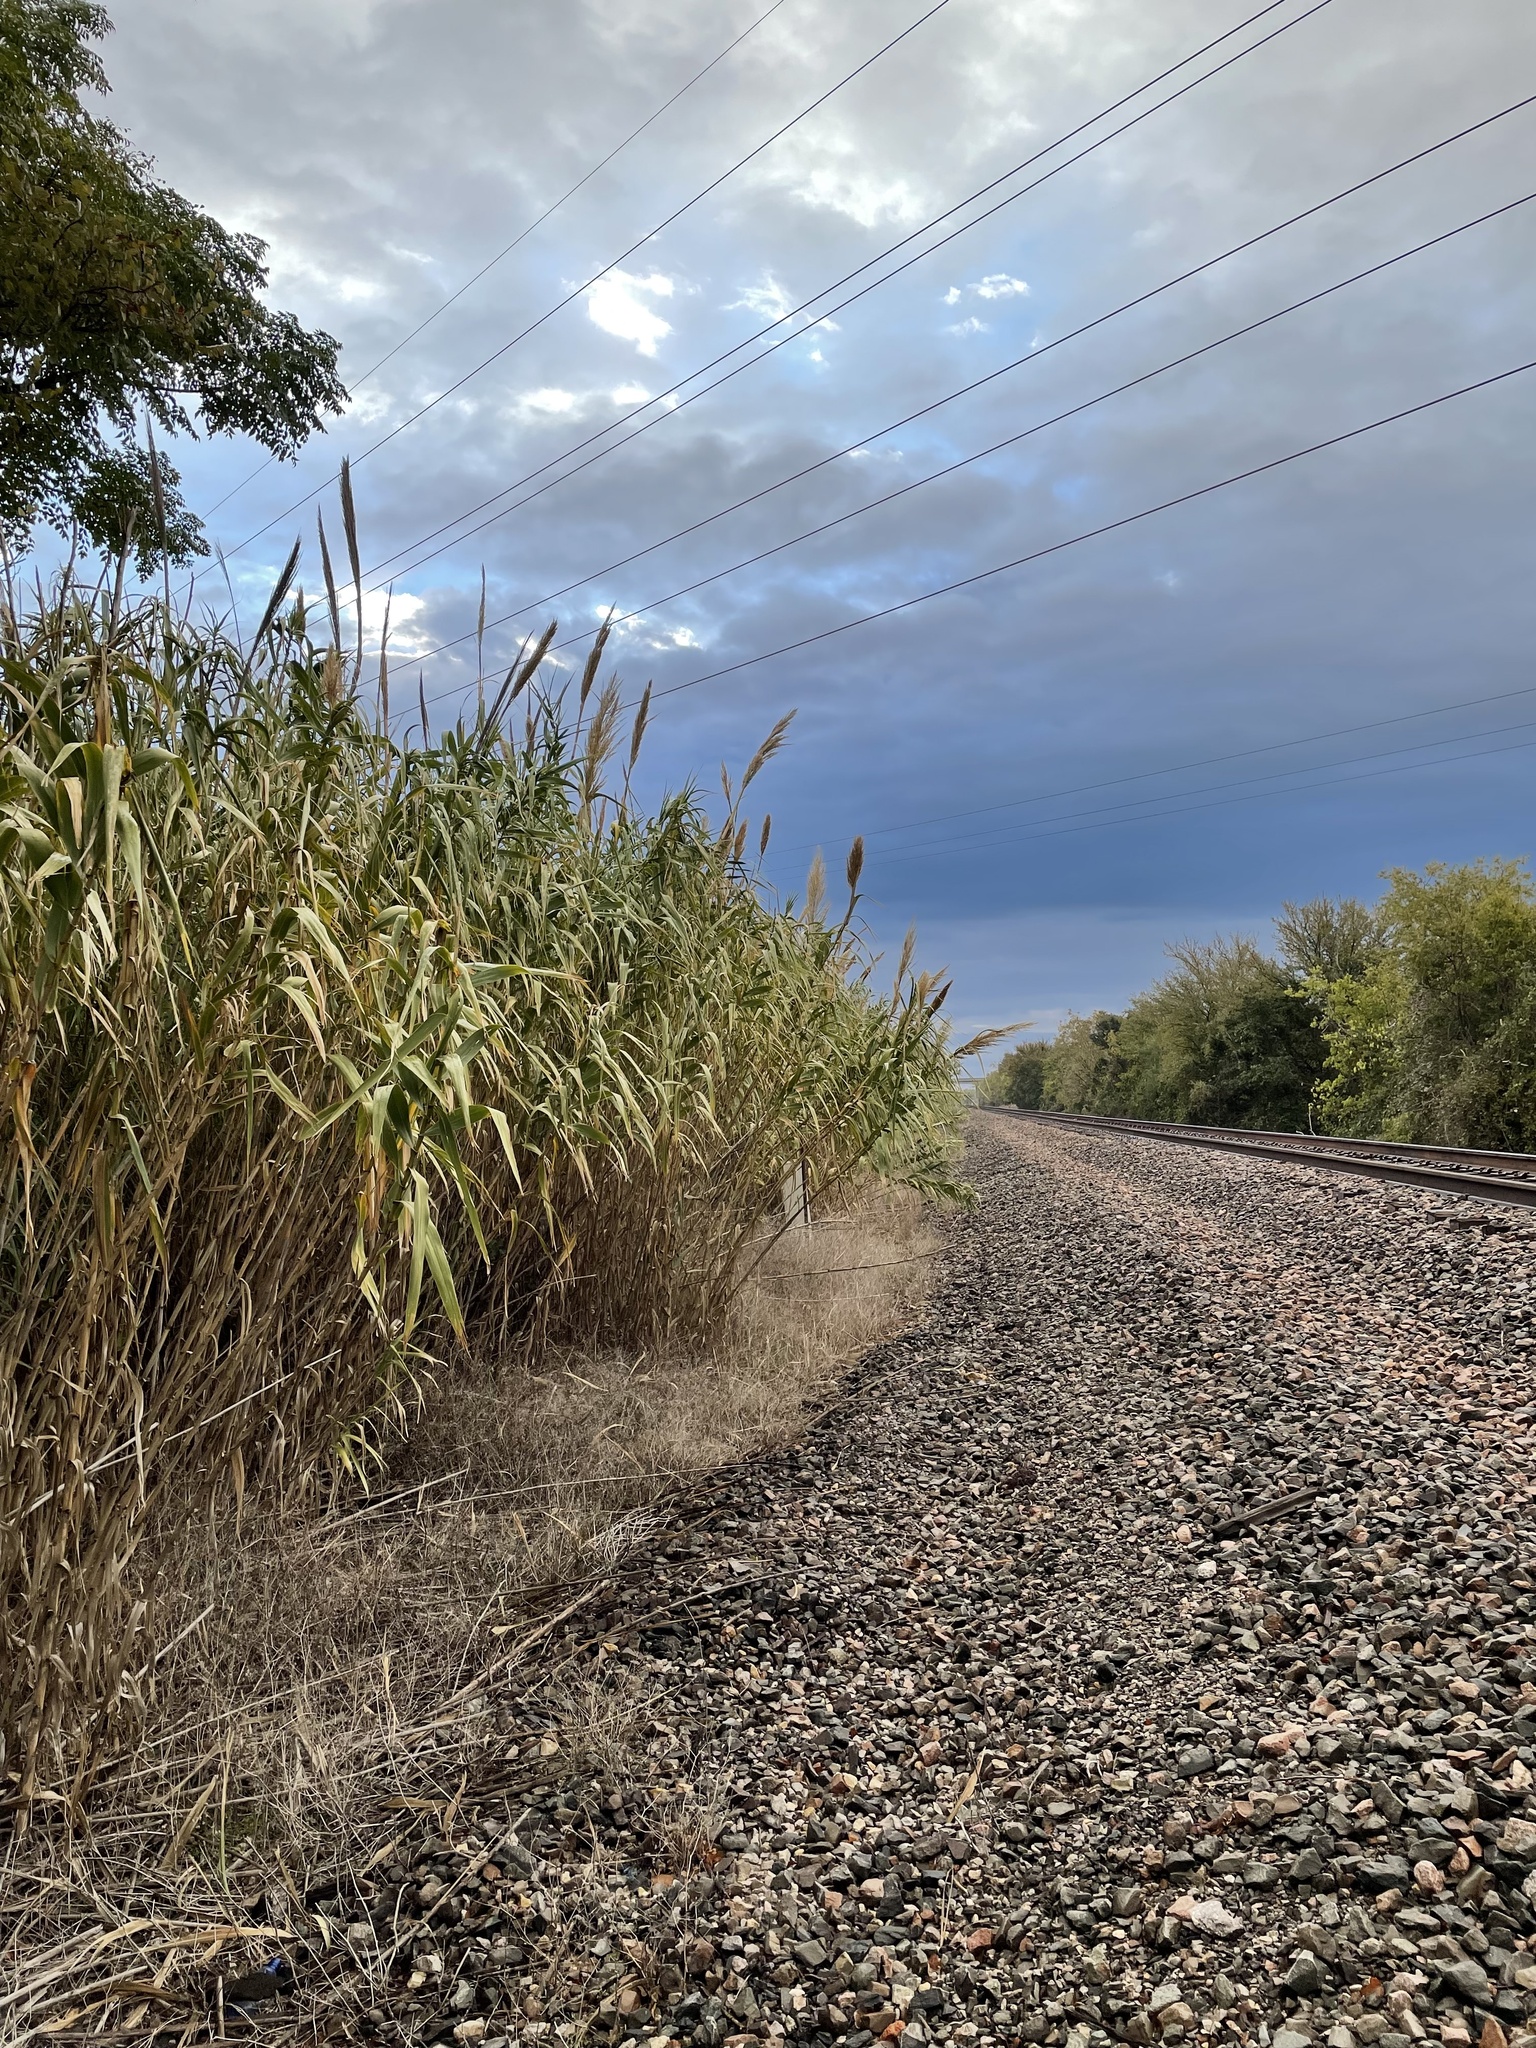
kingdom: Plantae
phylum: Tracheophyta
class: Liliopsida
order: Poales
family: Poaceae
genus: Arundo
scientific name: Arundo donax
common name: Giant reed
